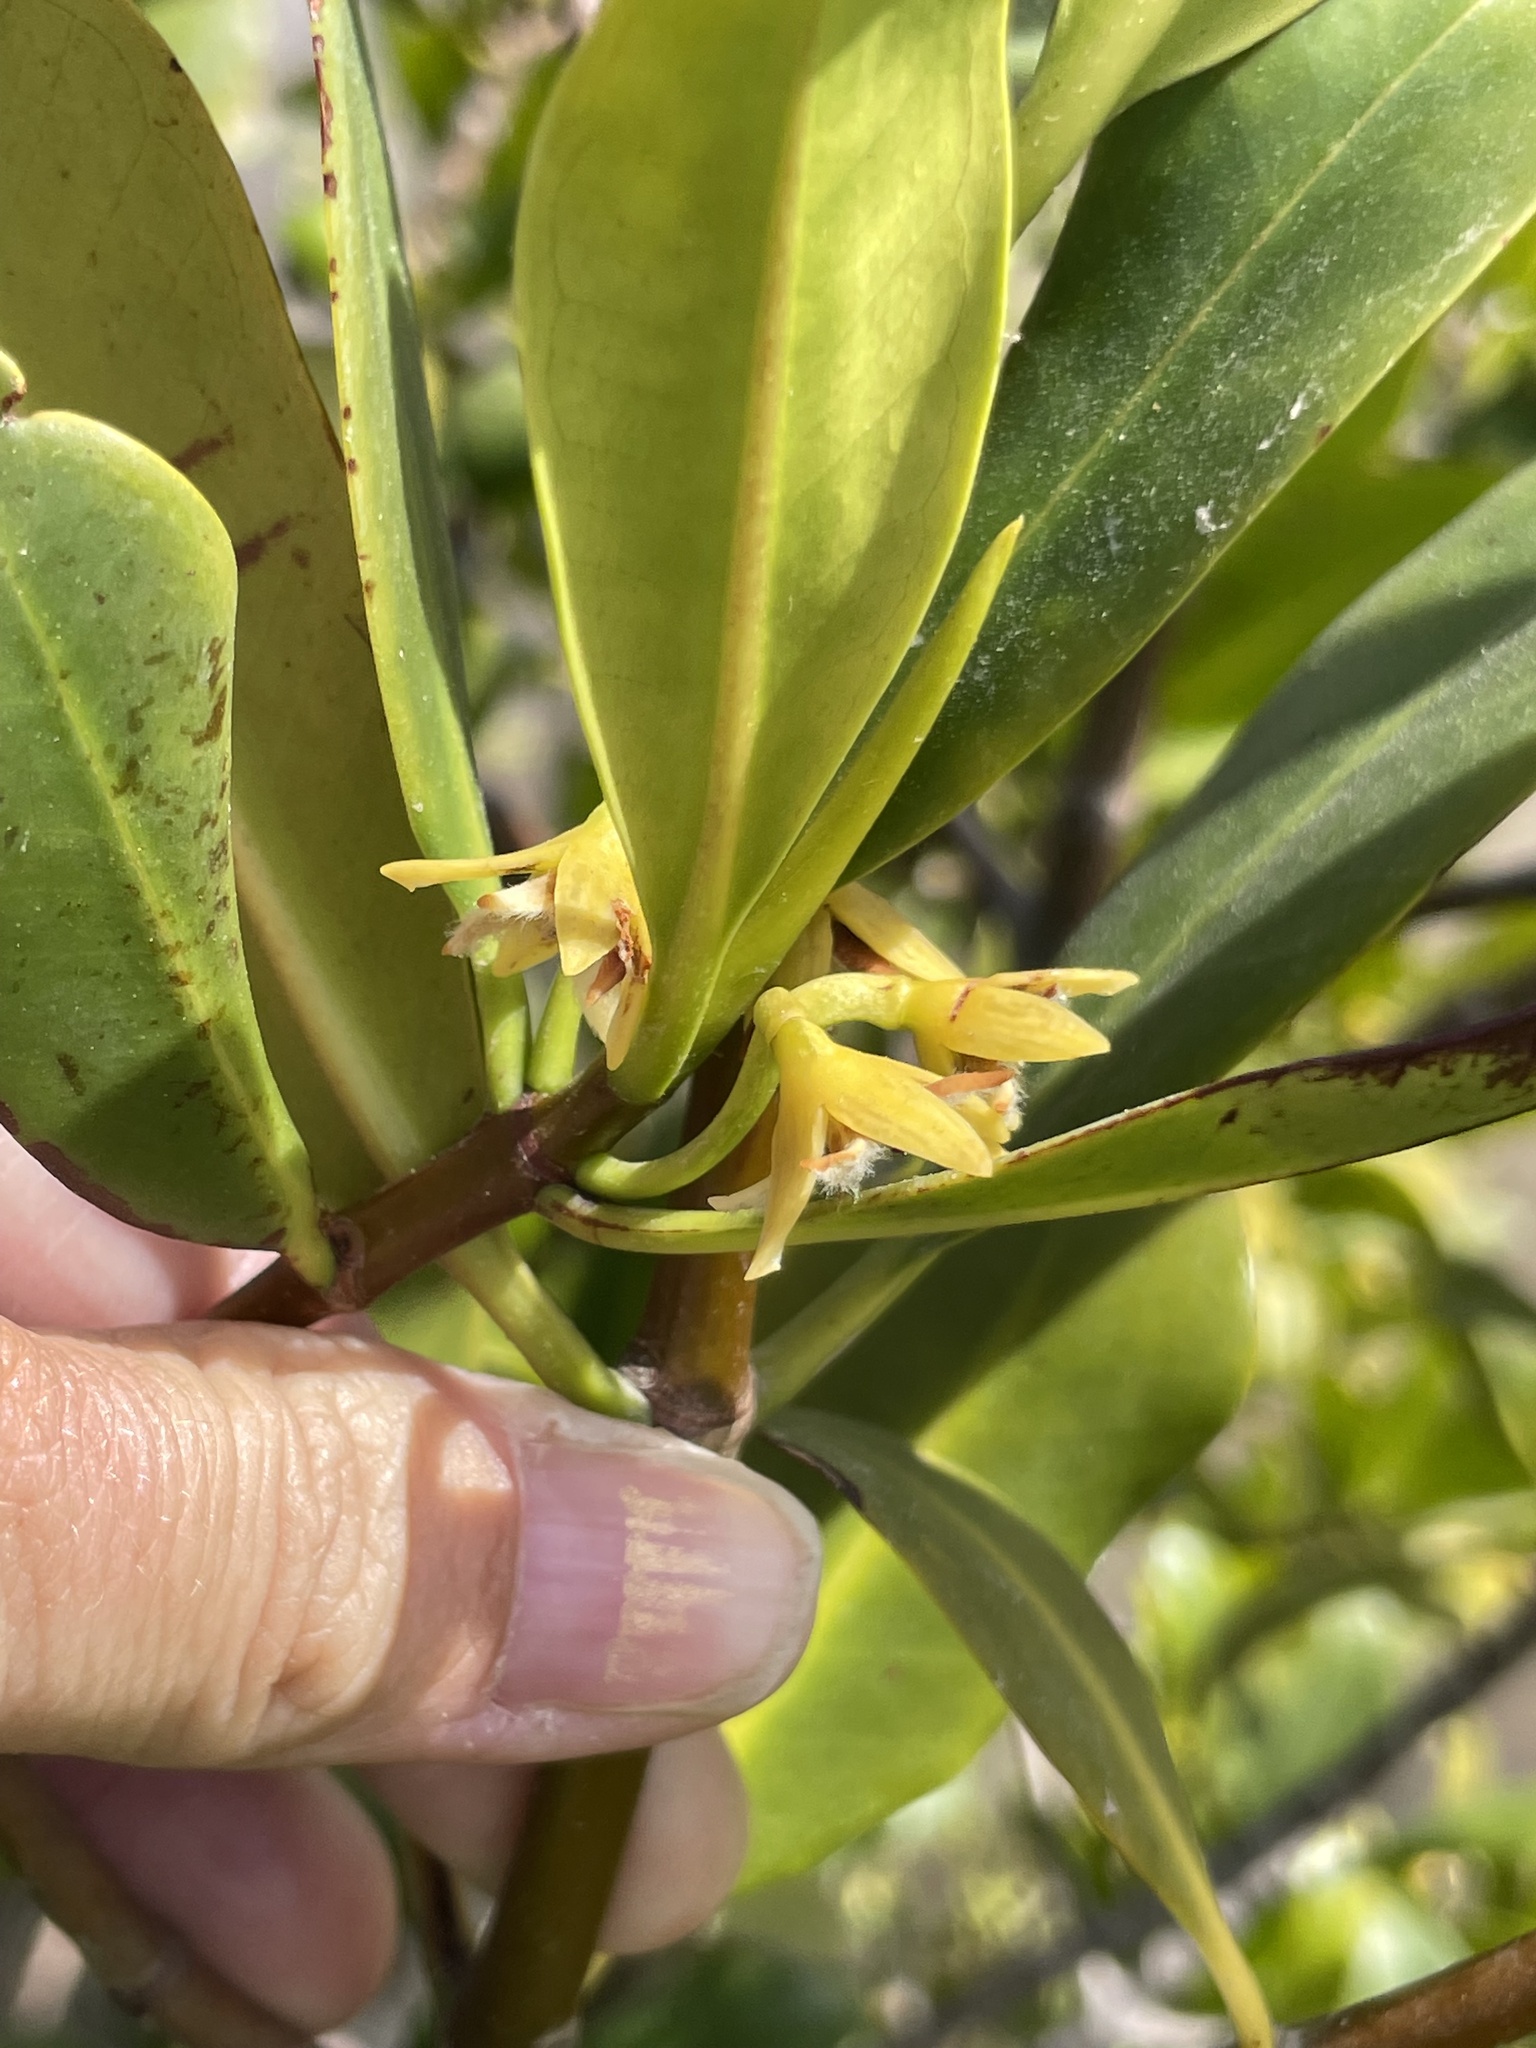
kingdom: Plantae
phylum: Tracheophyta
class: Magnoliopsida
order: Malpighiales
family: Rhizophoraceae
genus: Rhizophora
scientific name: Rhizophora mangle
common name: Red mangrove
